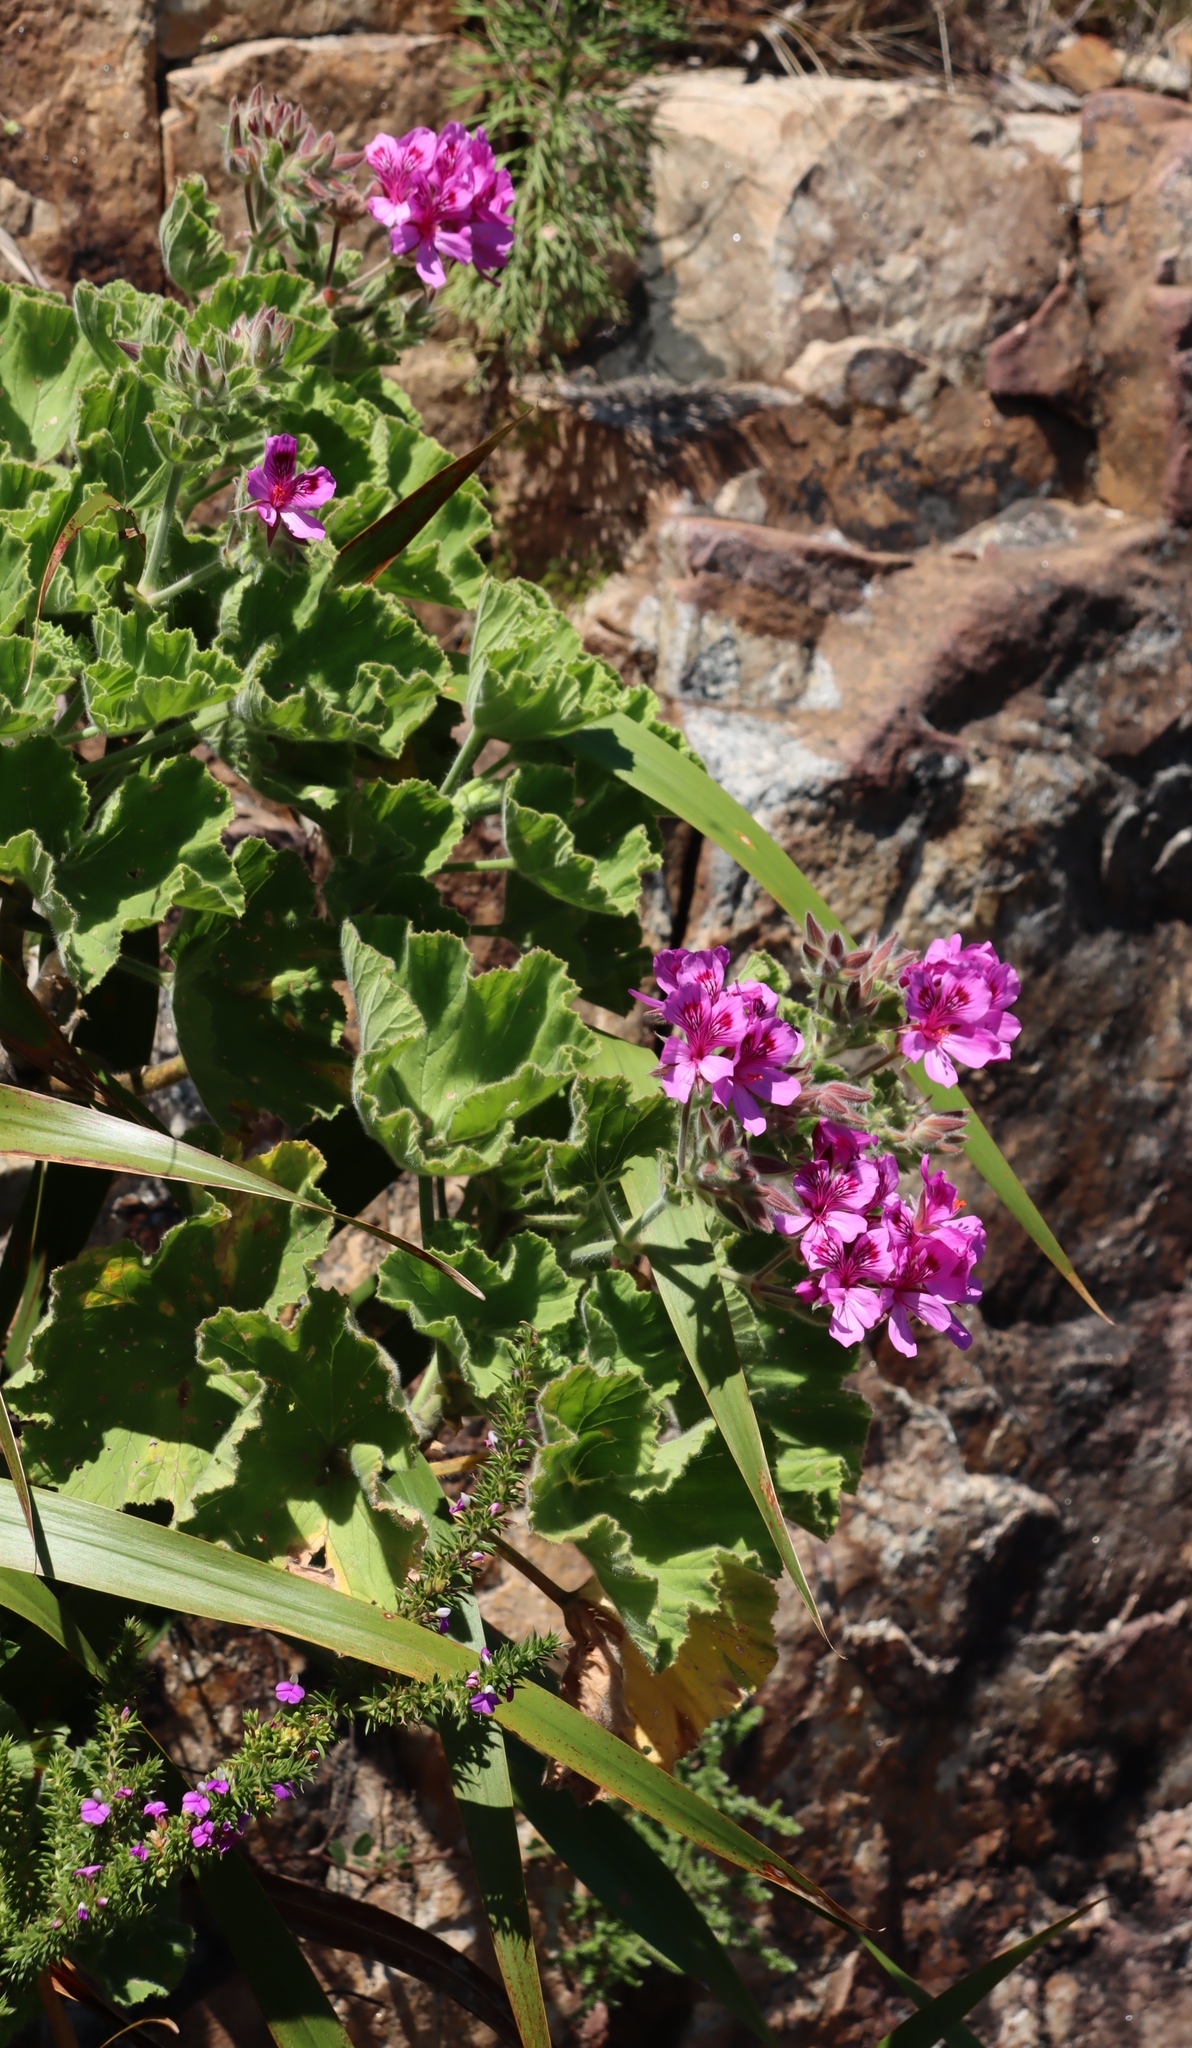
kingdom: Plantae
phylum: Tracheophyta
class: Magnoliopsida
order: Geraniales
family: Geraniaceae
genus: Pelargonium
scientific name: Pelargonium cucullatum
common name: Tree pelargonium
